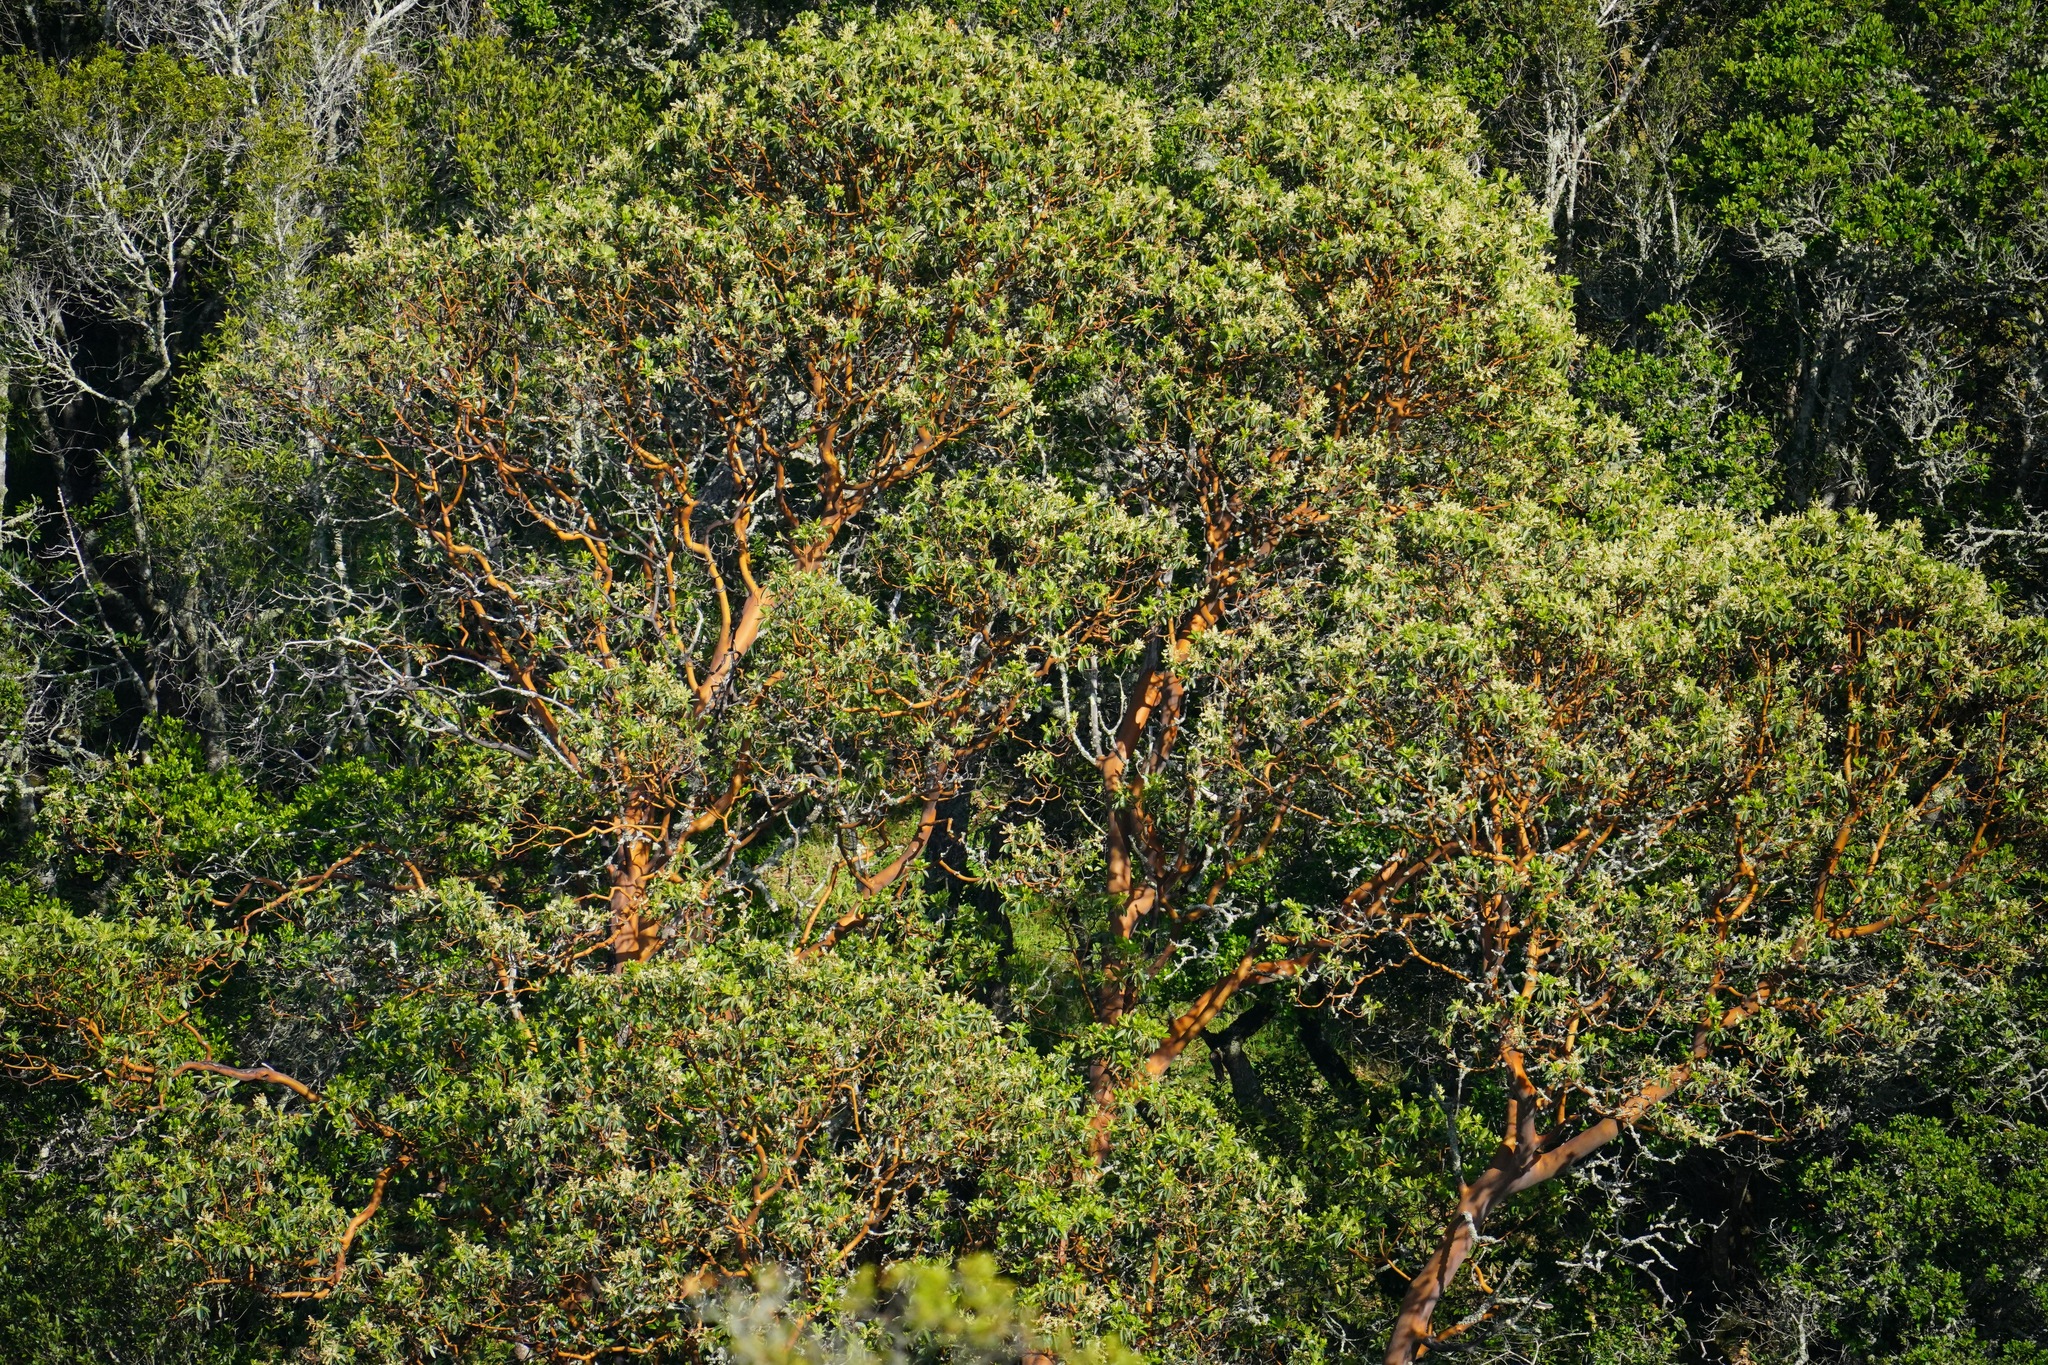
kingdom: Plantae
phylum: Tracheophyta
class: Magnoliopsida
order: Ericales
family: Ericaceae
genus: Arbutus
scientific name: Arbutus menziesii
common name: Pacific madrone
